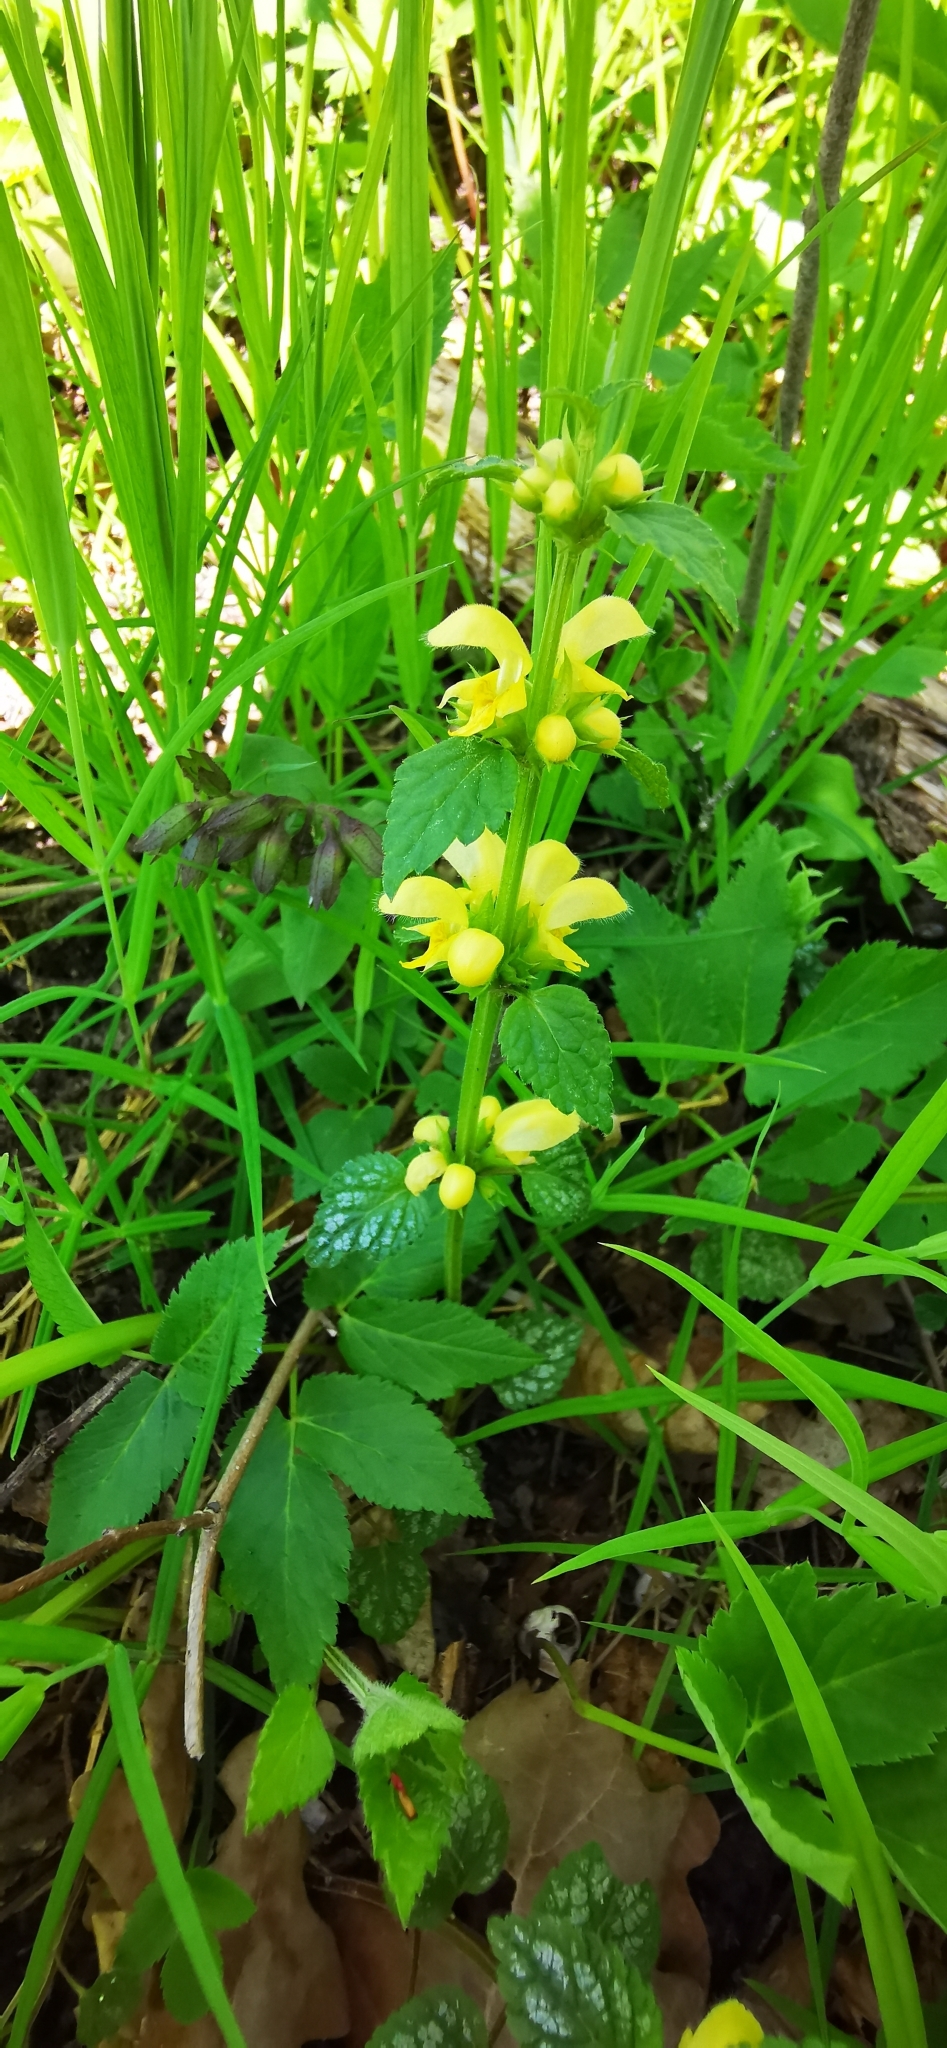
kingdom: Plantae
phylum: Tracheophyta
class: Magnoliopsida
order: Lamiales
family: Lamiaceae
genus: Lamium
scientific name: Lamium galeobdolon
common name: Yellow archangel
